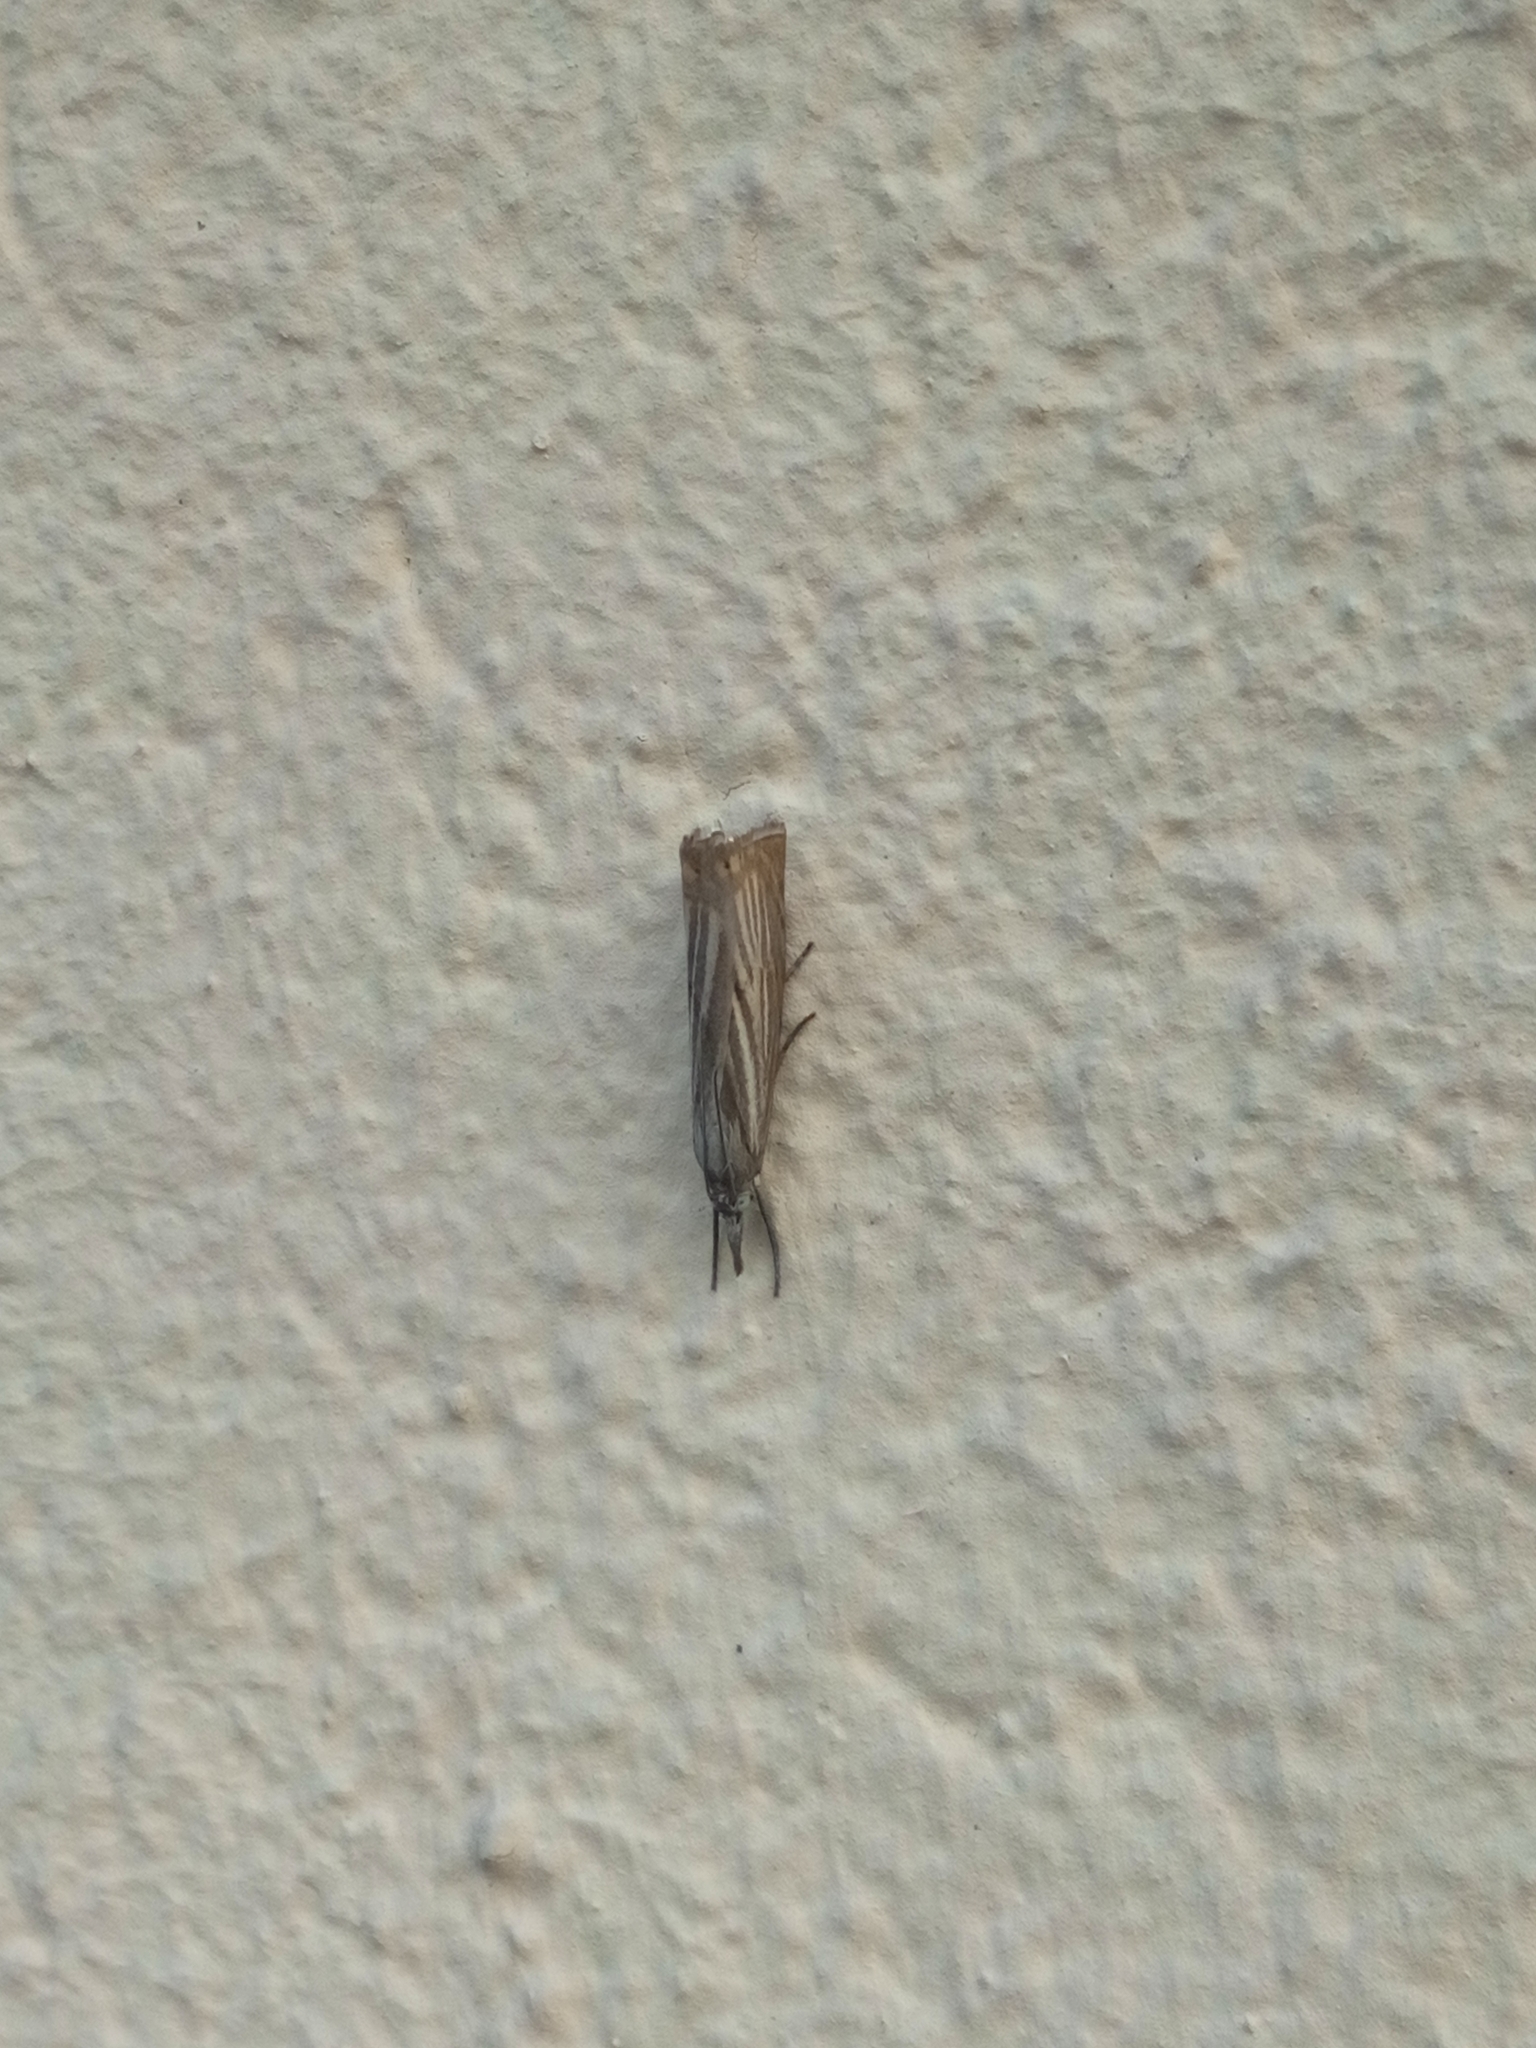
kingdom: Animalia
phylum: Arthropoda
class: Insecta
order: Lepidoptera
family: Crambidae
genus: Chrysoteuchia
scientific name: Chrysoteuchia culmella
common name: Garden grass-veneer
